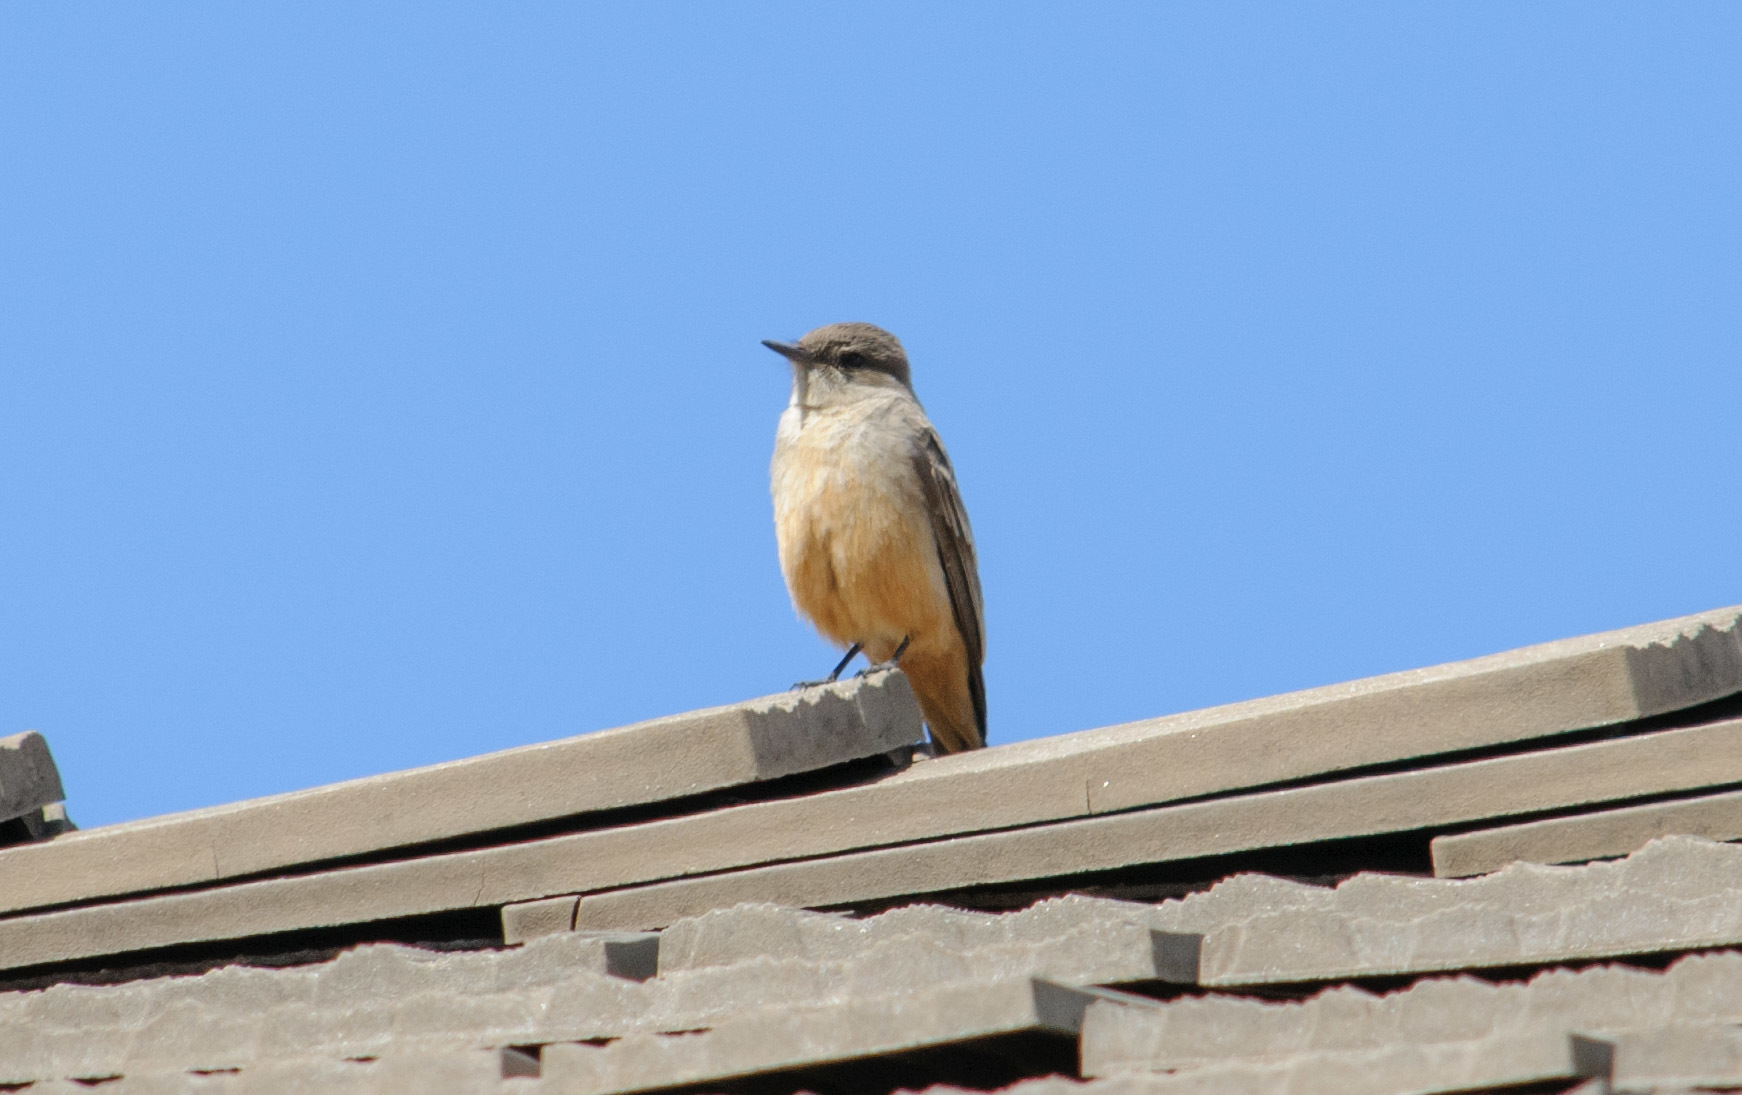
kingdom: Animalia
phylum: Chordata
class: Aves
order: Passeriformes
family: Tyrannidae
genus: Sayornis
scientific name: Sayornis saya
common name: Say's phoebe
